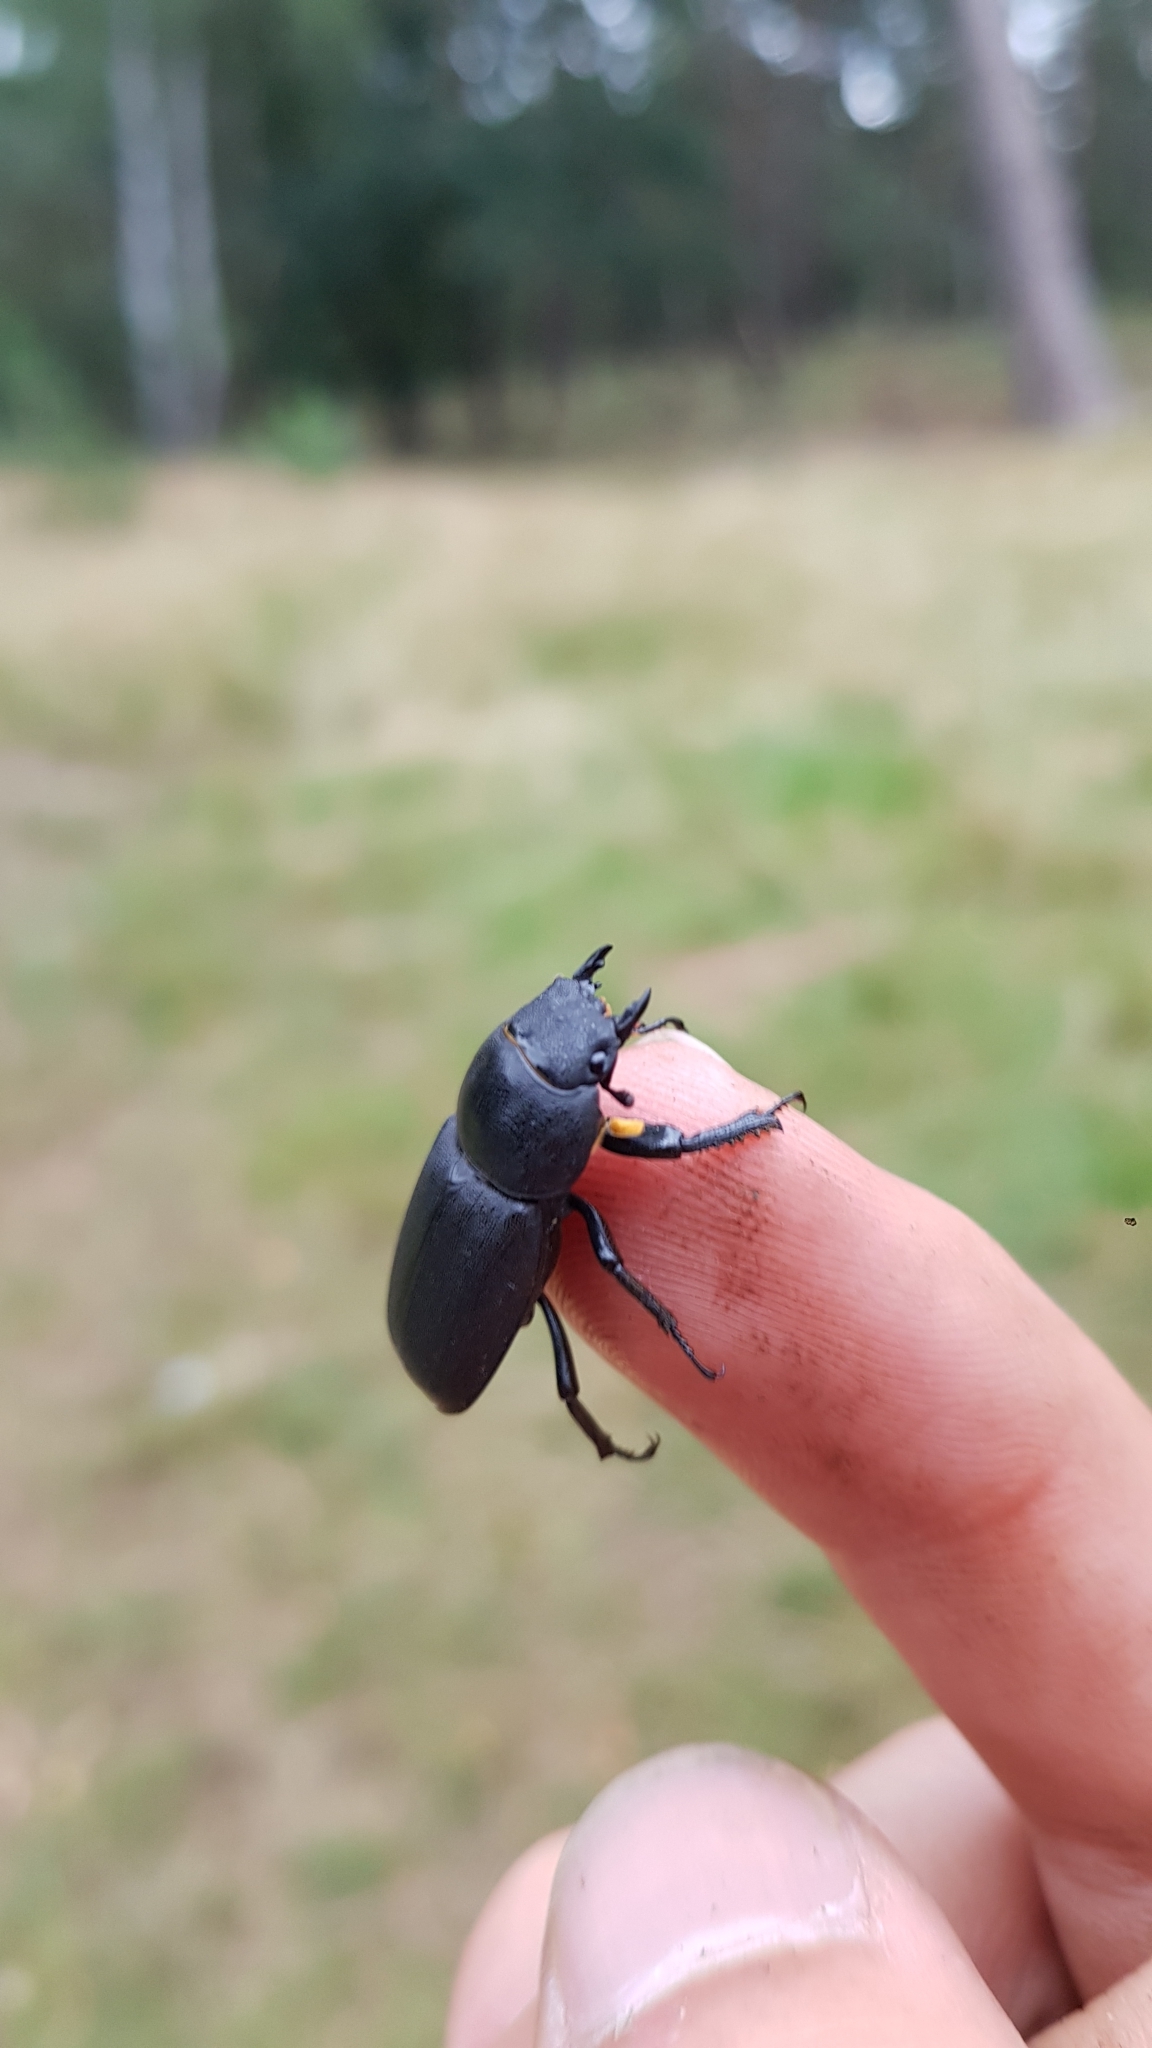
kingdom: Animalia
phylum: Arthropoda
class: Insecta
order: Coleoptera
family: Lucanidae
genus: Dorcus
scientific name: Dorcus parallelipipedus
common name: Lesser stag beetle
